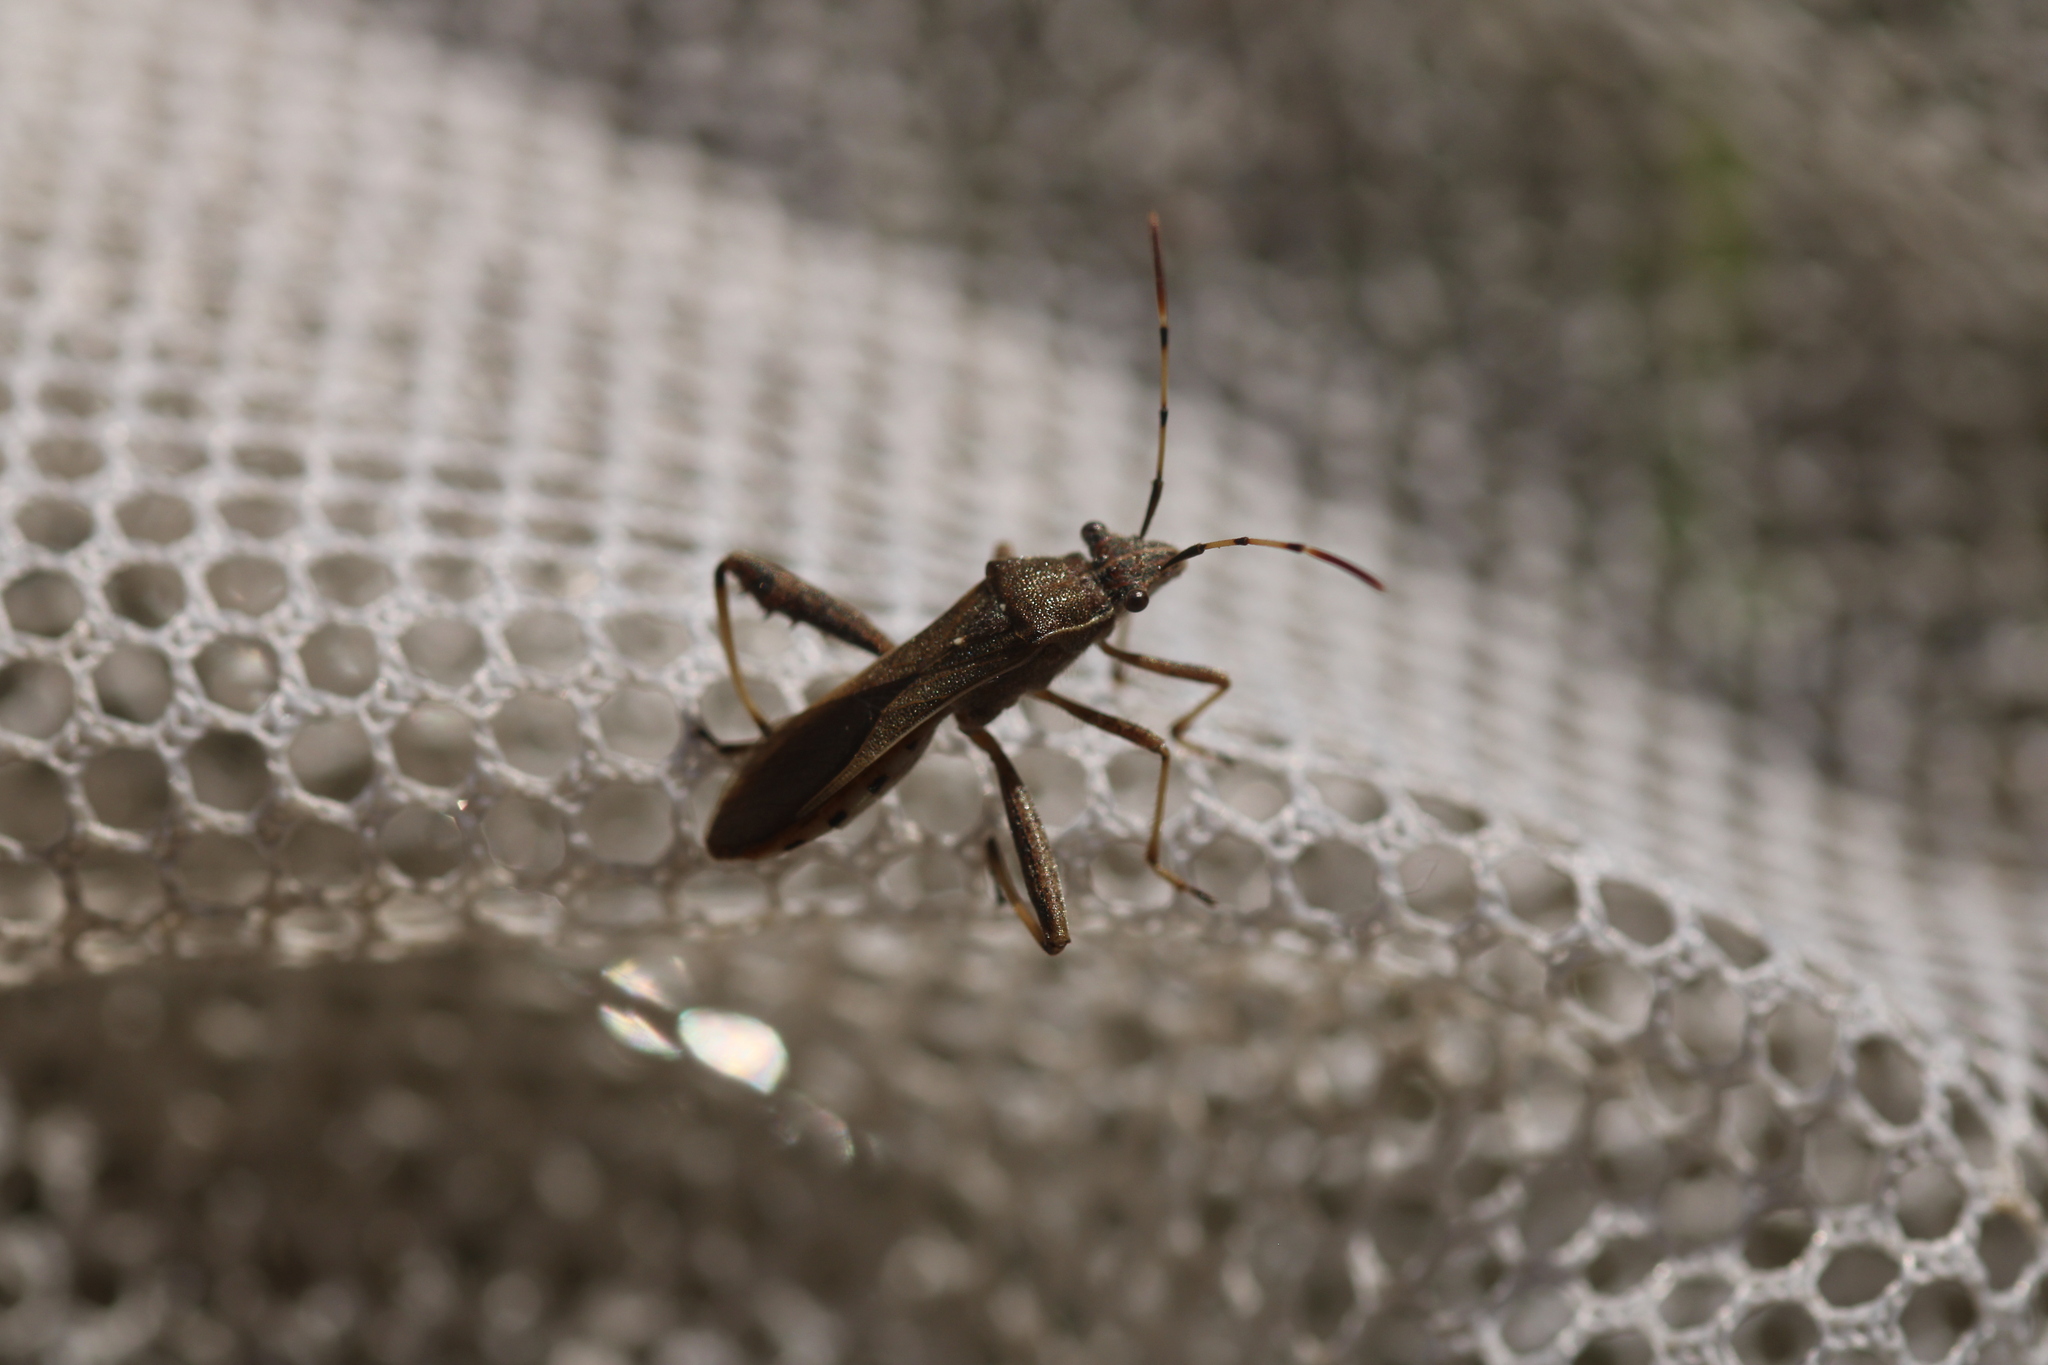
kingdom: Animalia
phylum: Arthropoda
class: Insecta
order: Hemiptera
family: Alydidae
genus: Camptopus
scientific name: Camptopus lateralis
